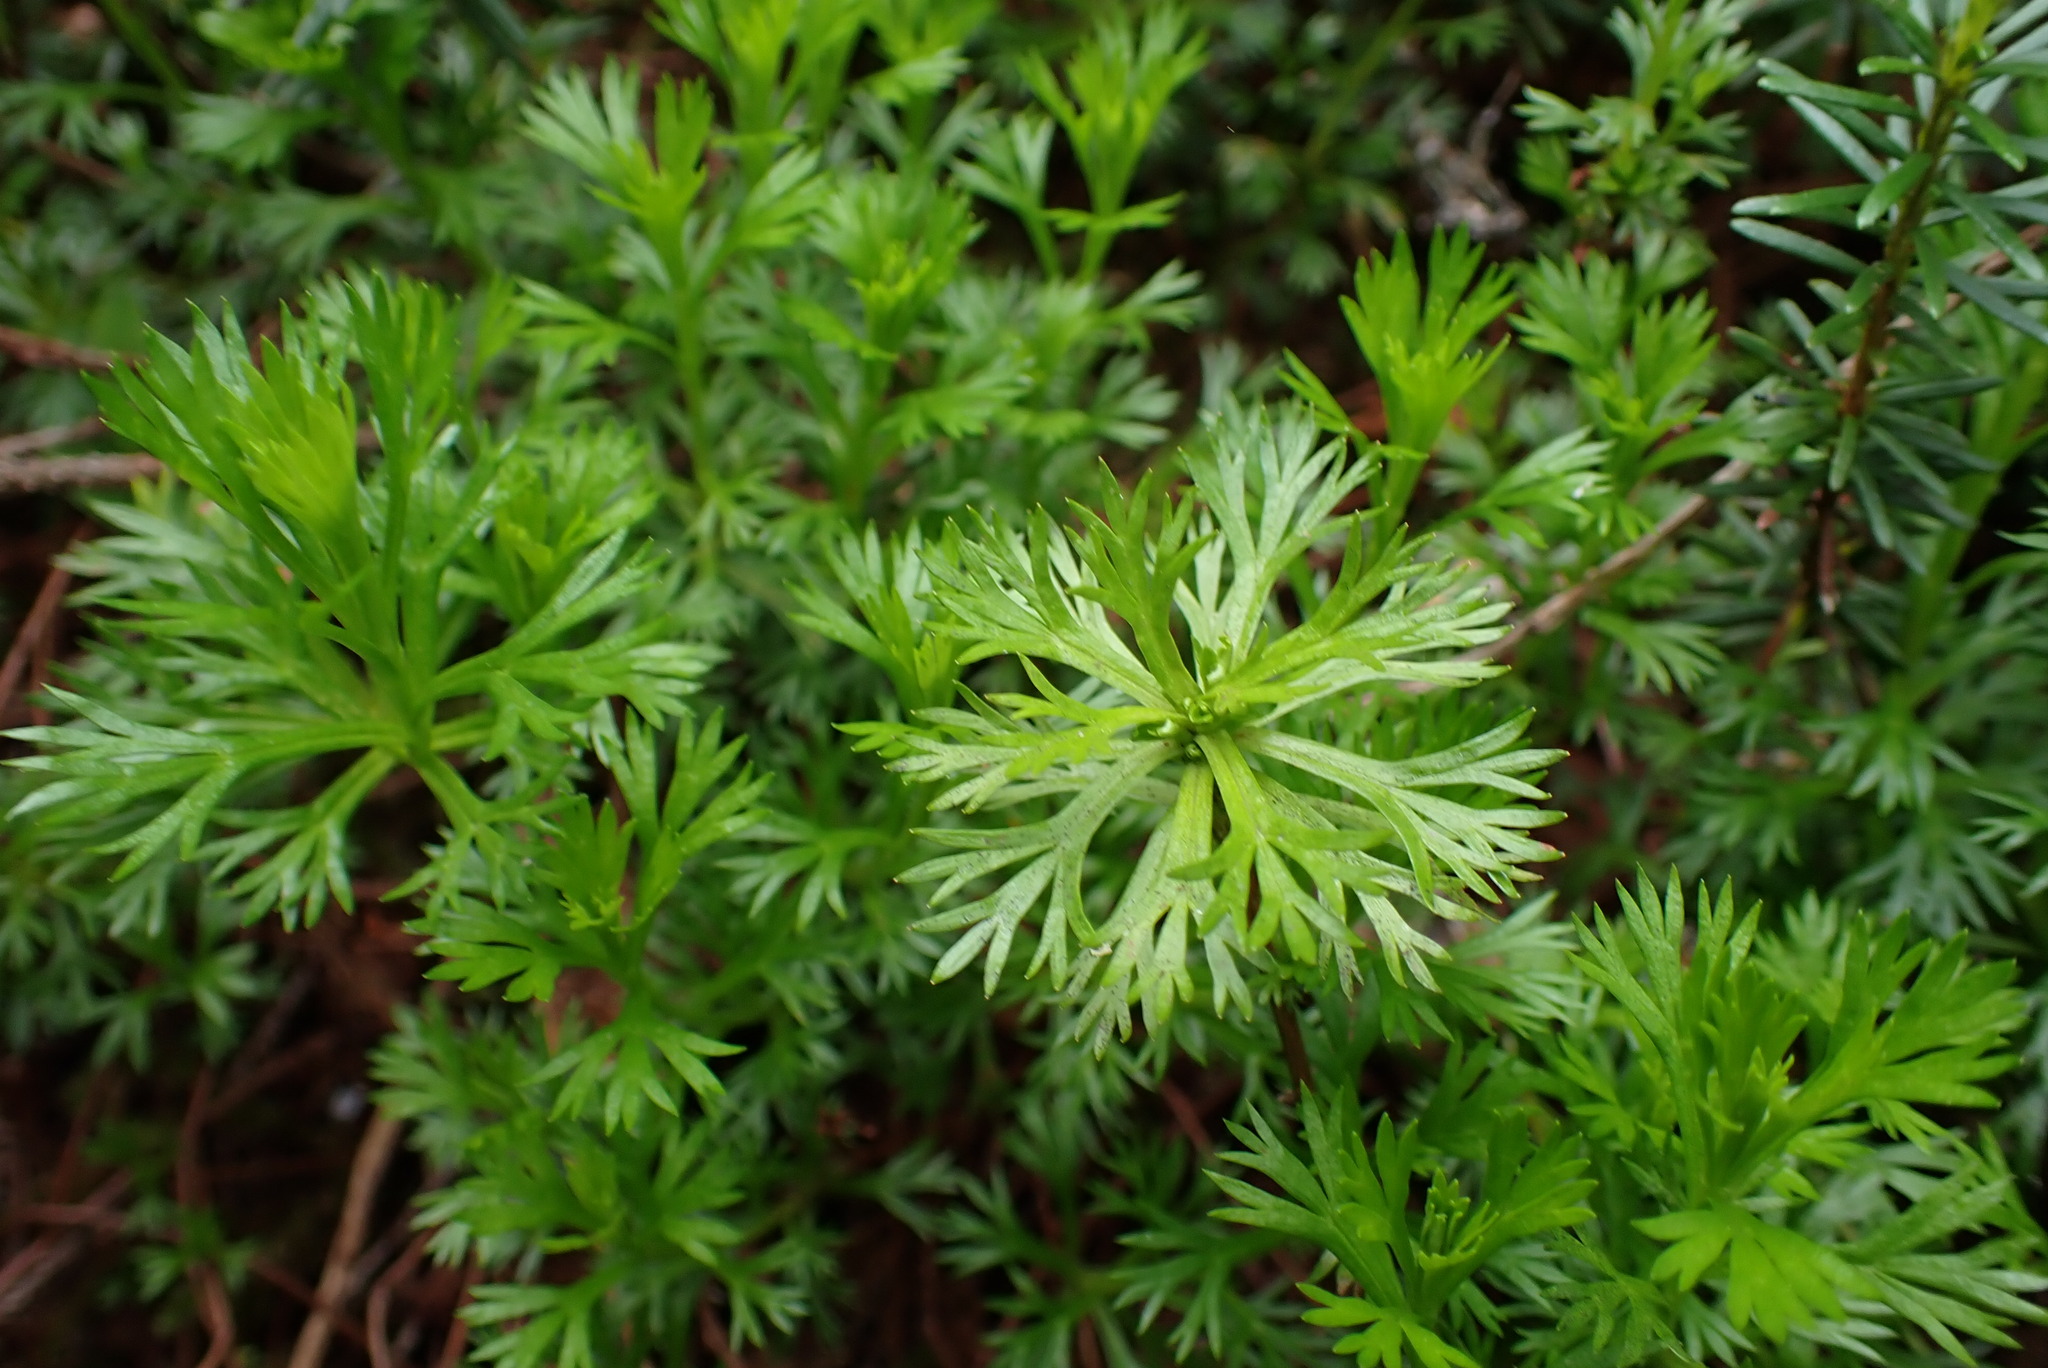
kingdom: Plantae
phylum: Tracheophyta
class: Magnoliopsida
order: Rosales
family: Rosaceae
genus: Luetkea
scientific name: Luetkea pectinata
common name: Partridgefoot
